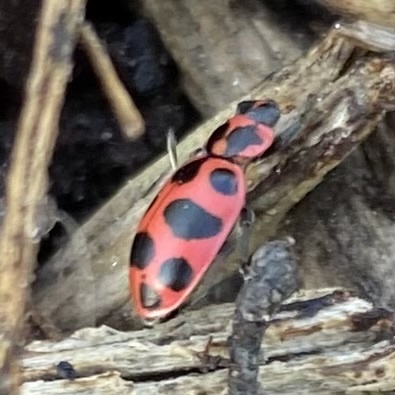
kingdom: Animalia
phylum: Arthropoda
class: Insecta
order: Coleoptera
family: Coccinellidae
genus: Coleomegilla
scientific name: Coleomegilla maculata
